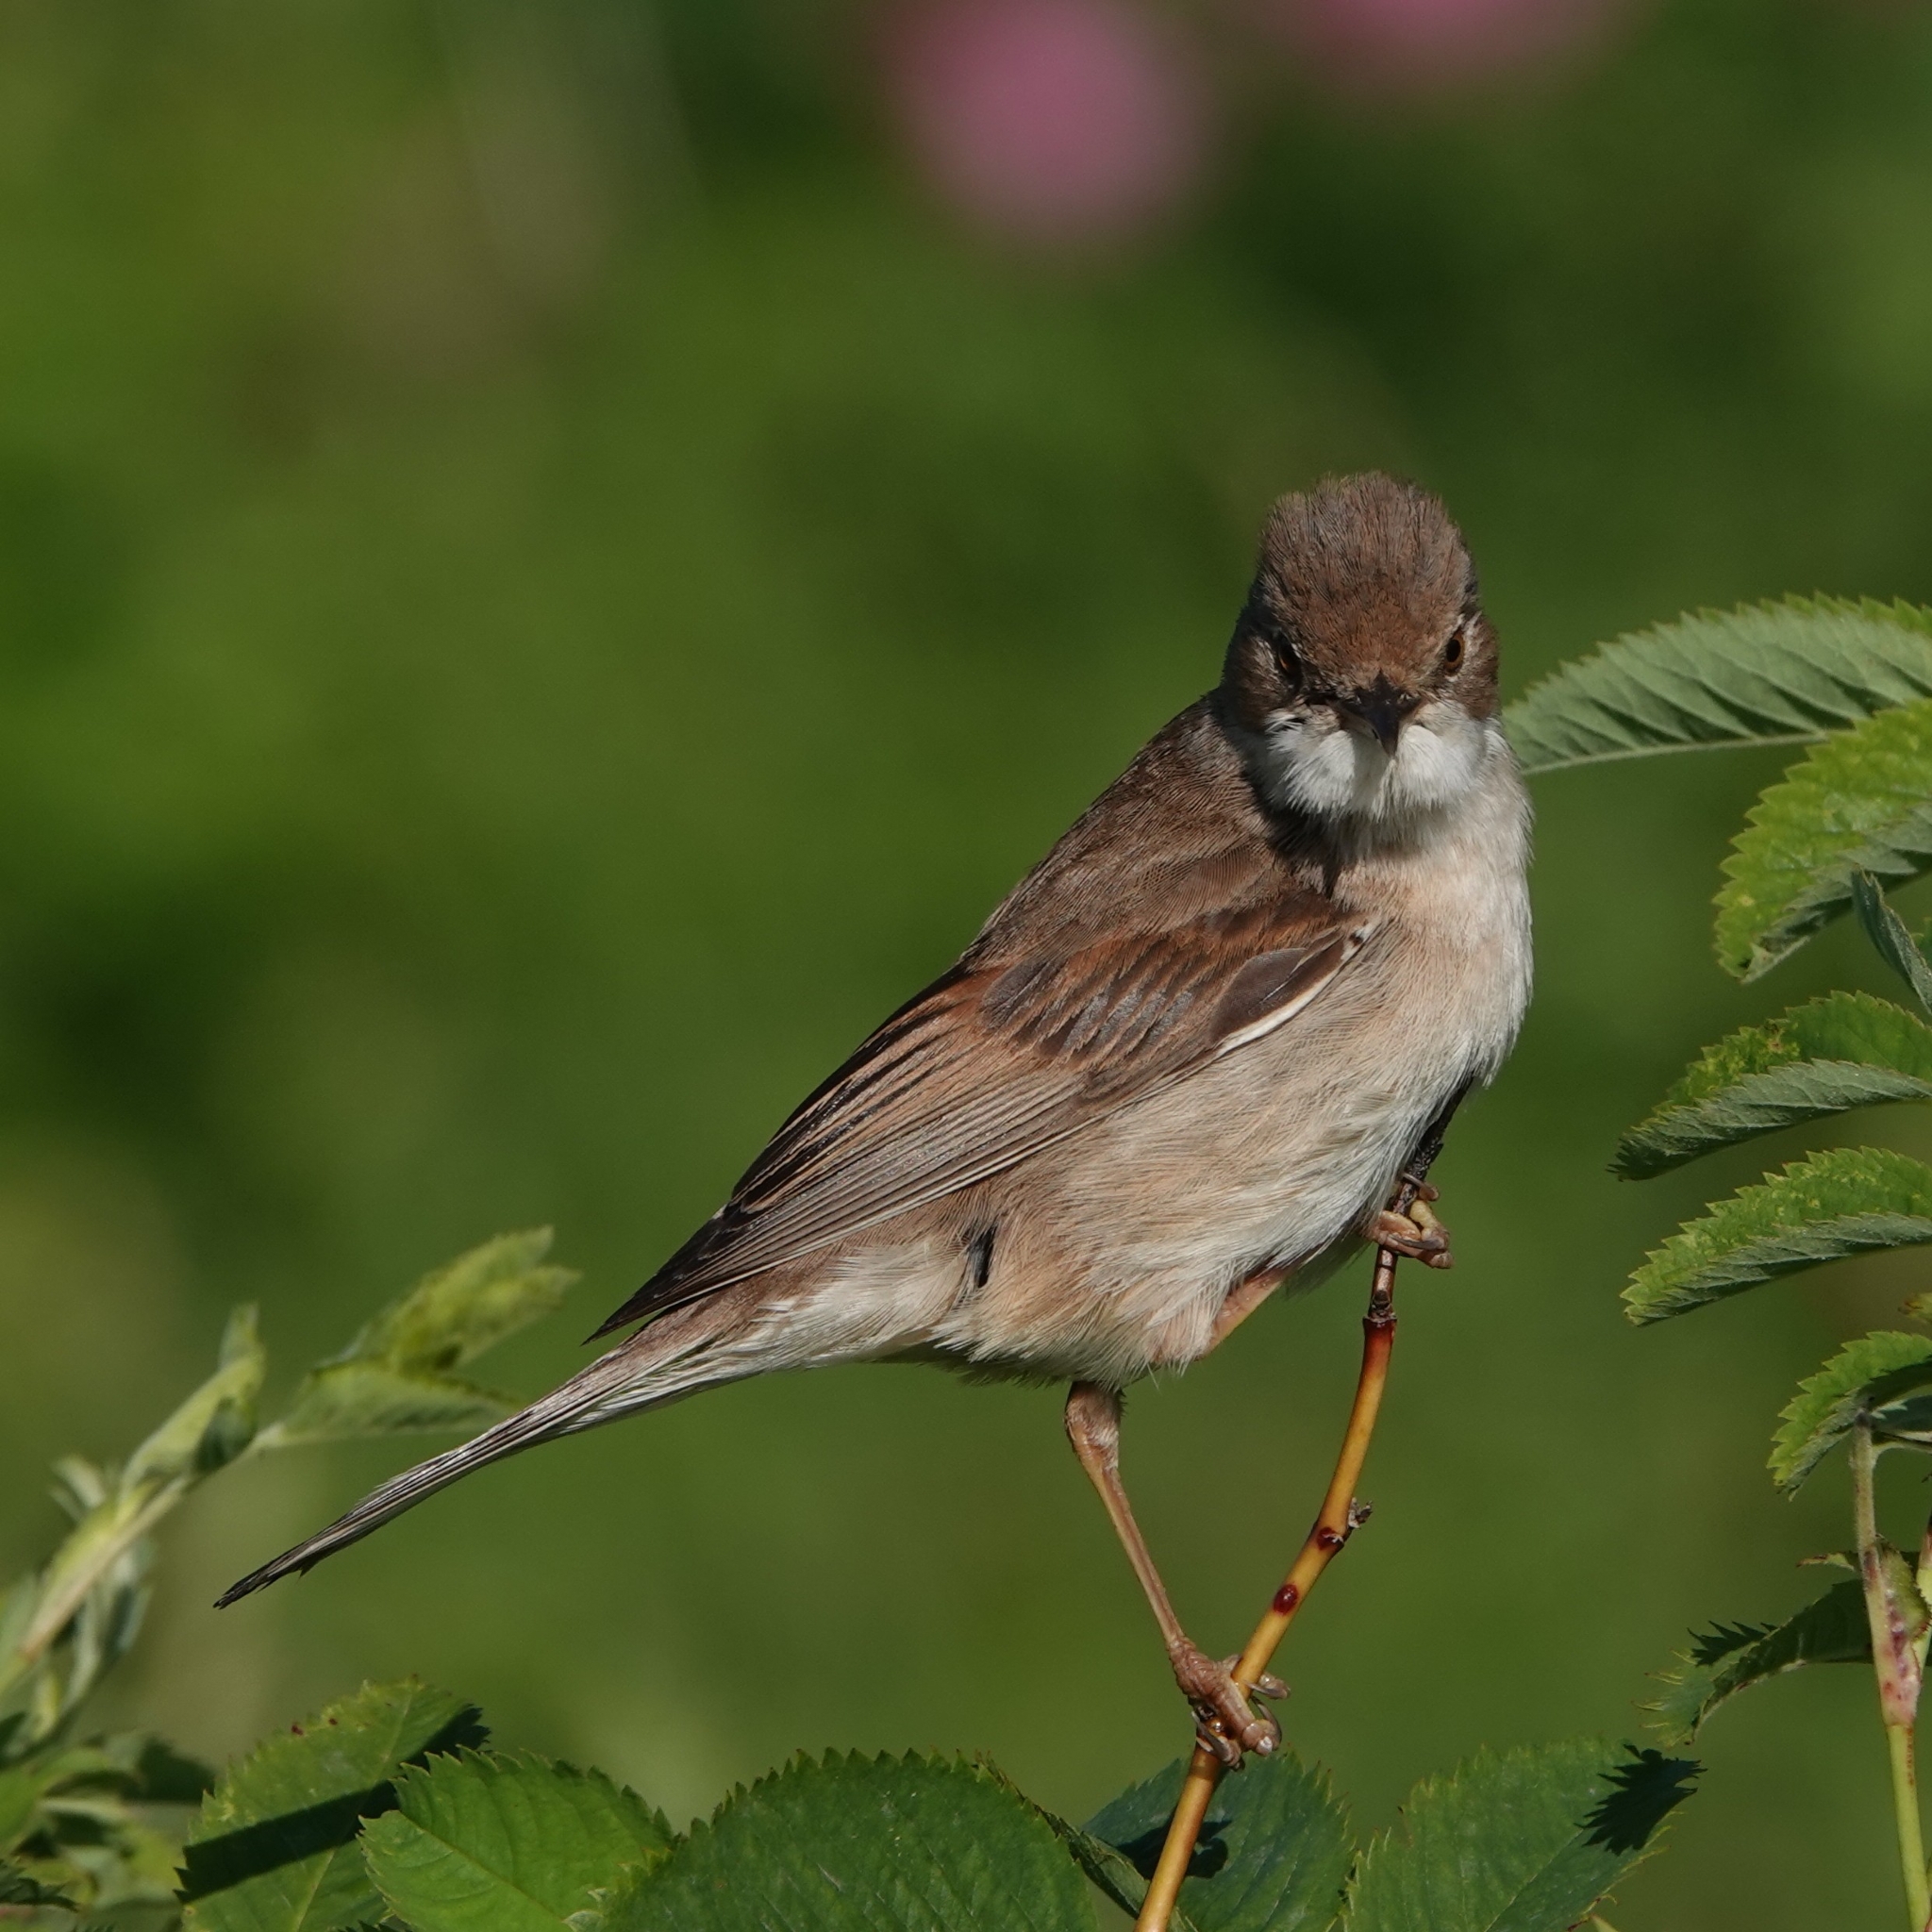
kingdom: Animalia
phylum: Chordata
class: Aves
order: Passeriformes
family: Sylviidae
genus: Sylvia
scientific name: Sylvia communis
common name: Common whitethroat
